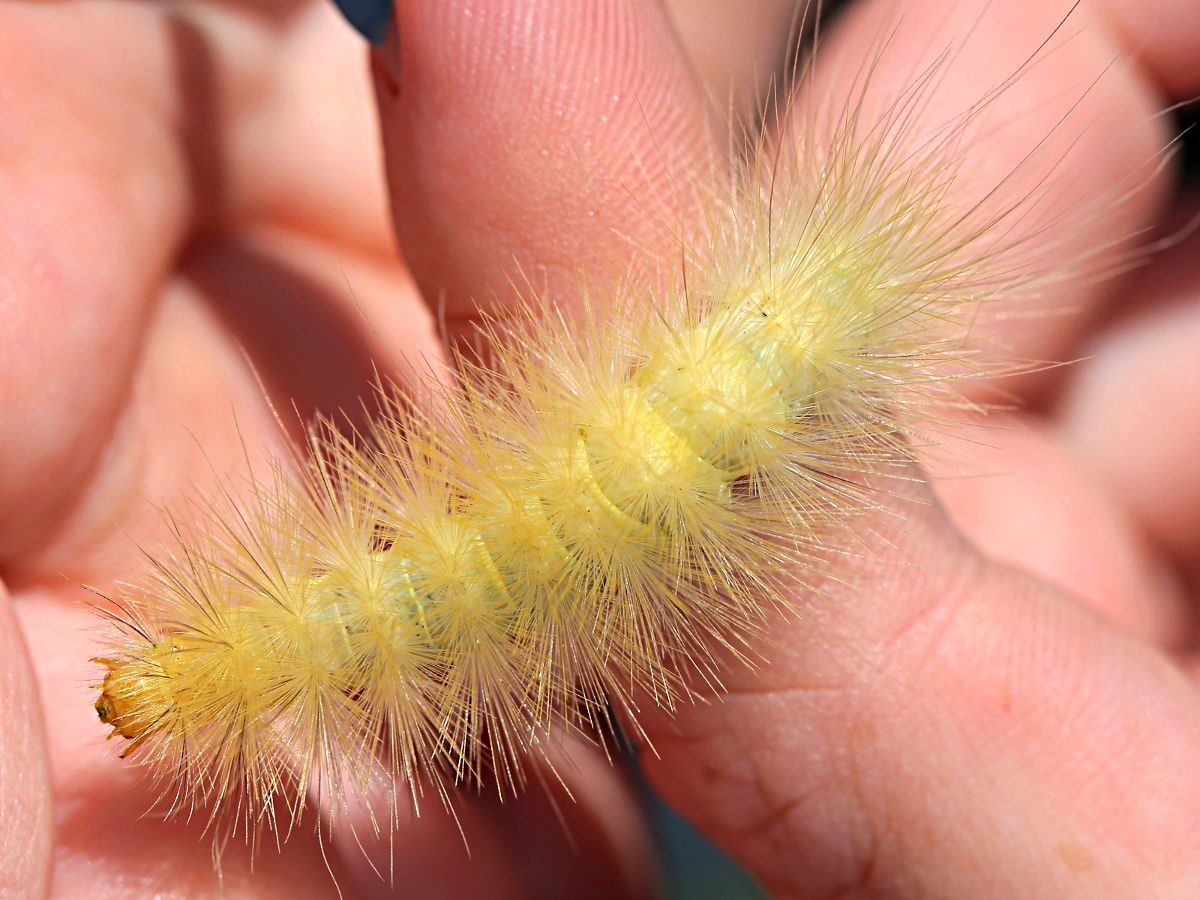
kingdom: Animalia
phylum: Arthropoda
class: Insecta
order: Lepidoptera
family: Erebidae
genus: Spilosoma
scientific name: Spilosoma virginica
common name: Virginia tiger moth
